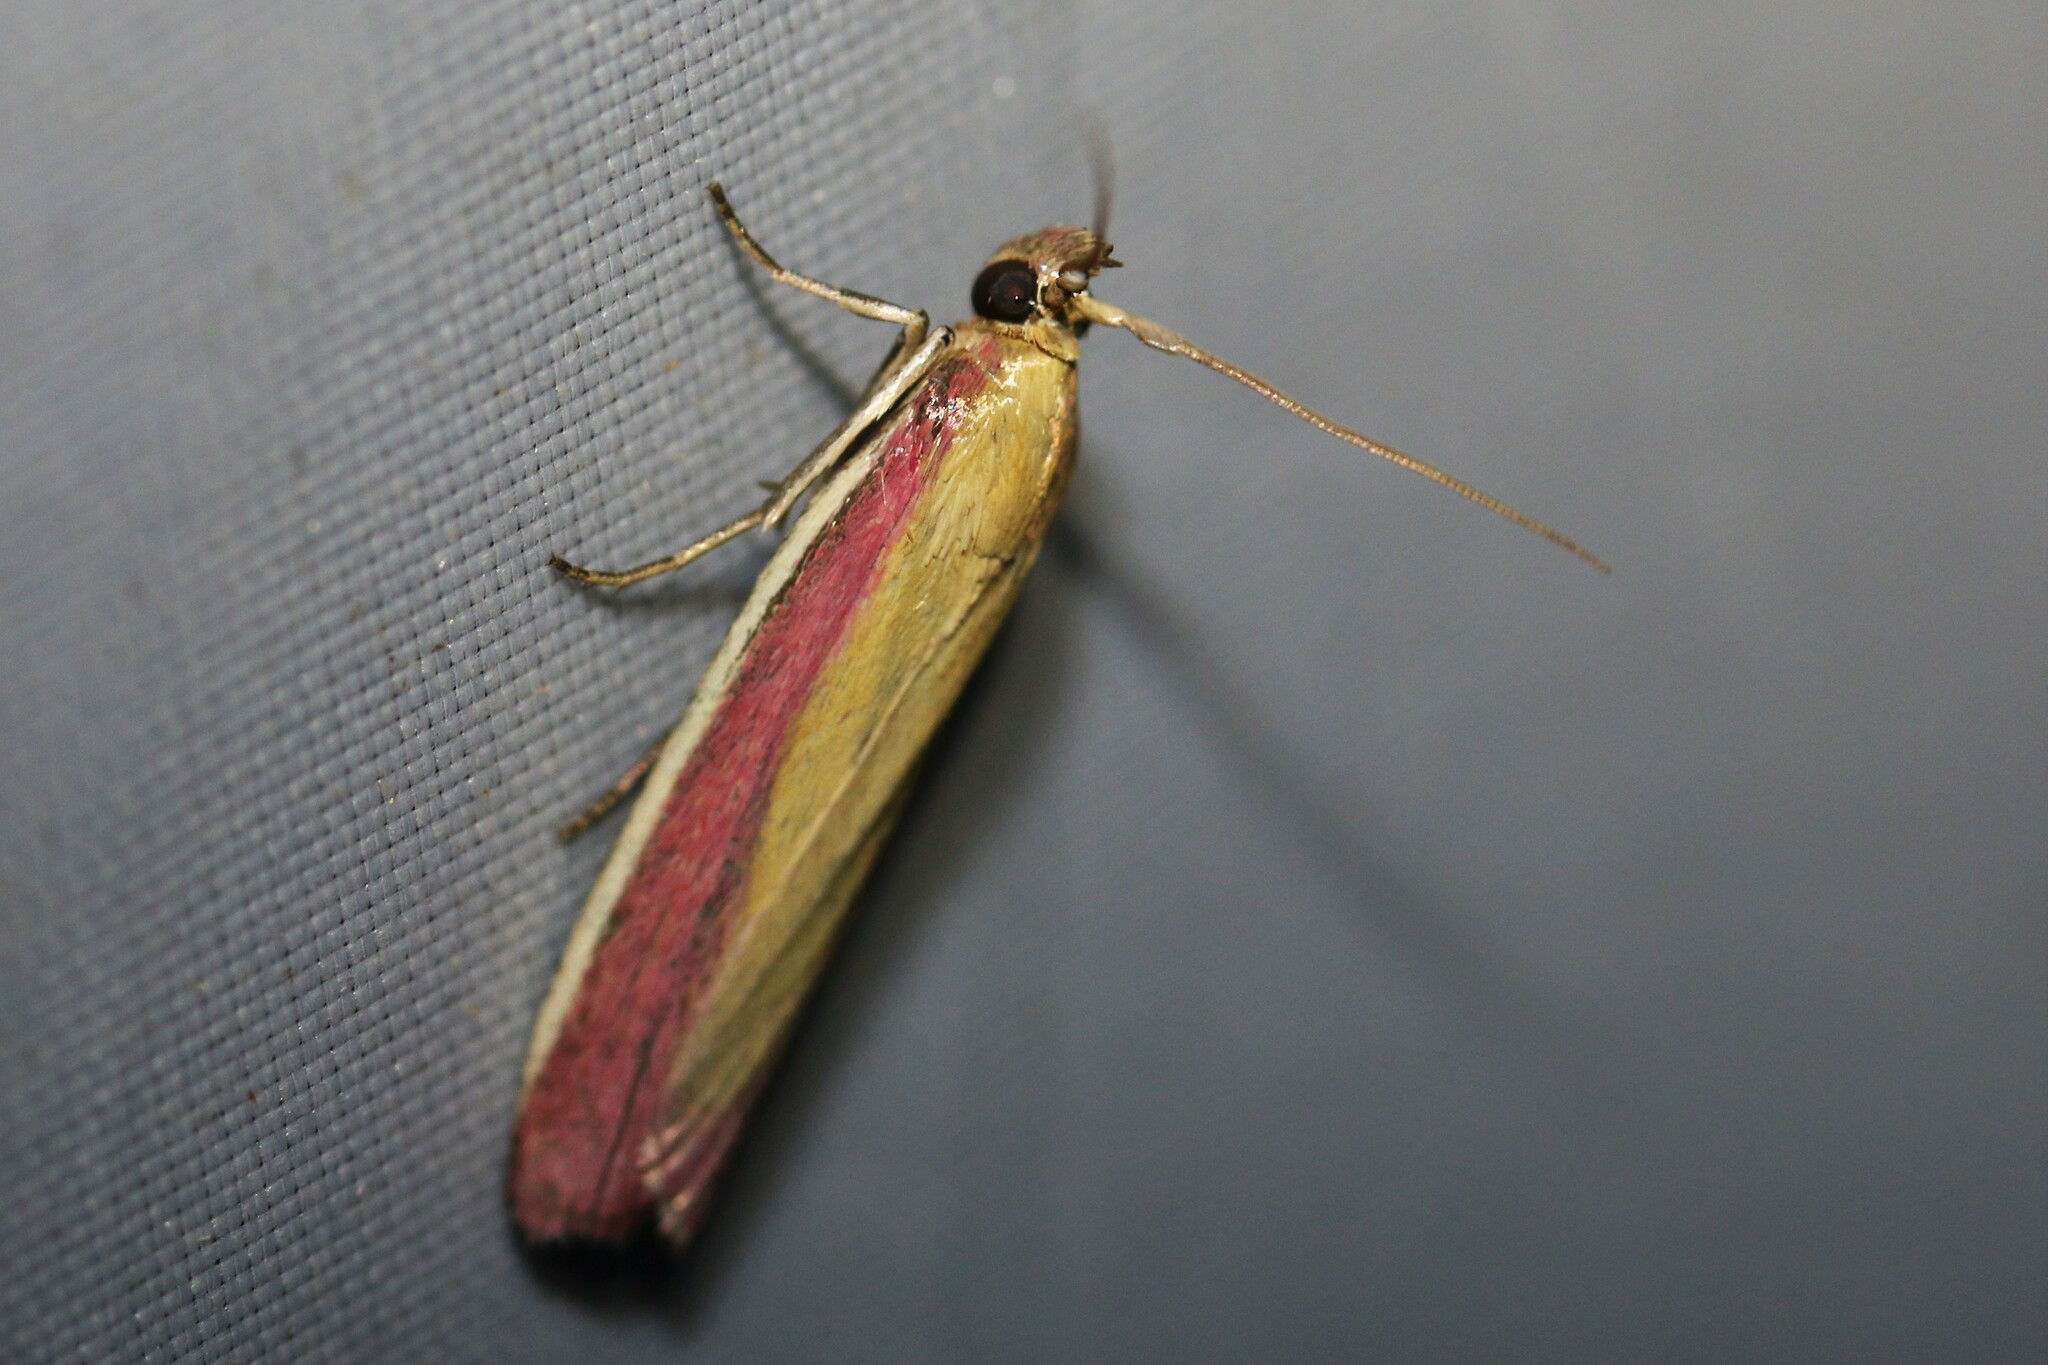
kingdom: Animalia
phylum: Arthropoda
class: Insecta
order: Lepidoptera
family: Pyralidae
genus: Oncocera
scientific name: Oncocera semirubella
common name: Rosy-striped knot-horn
